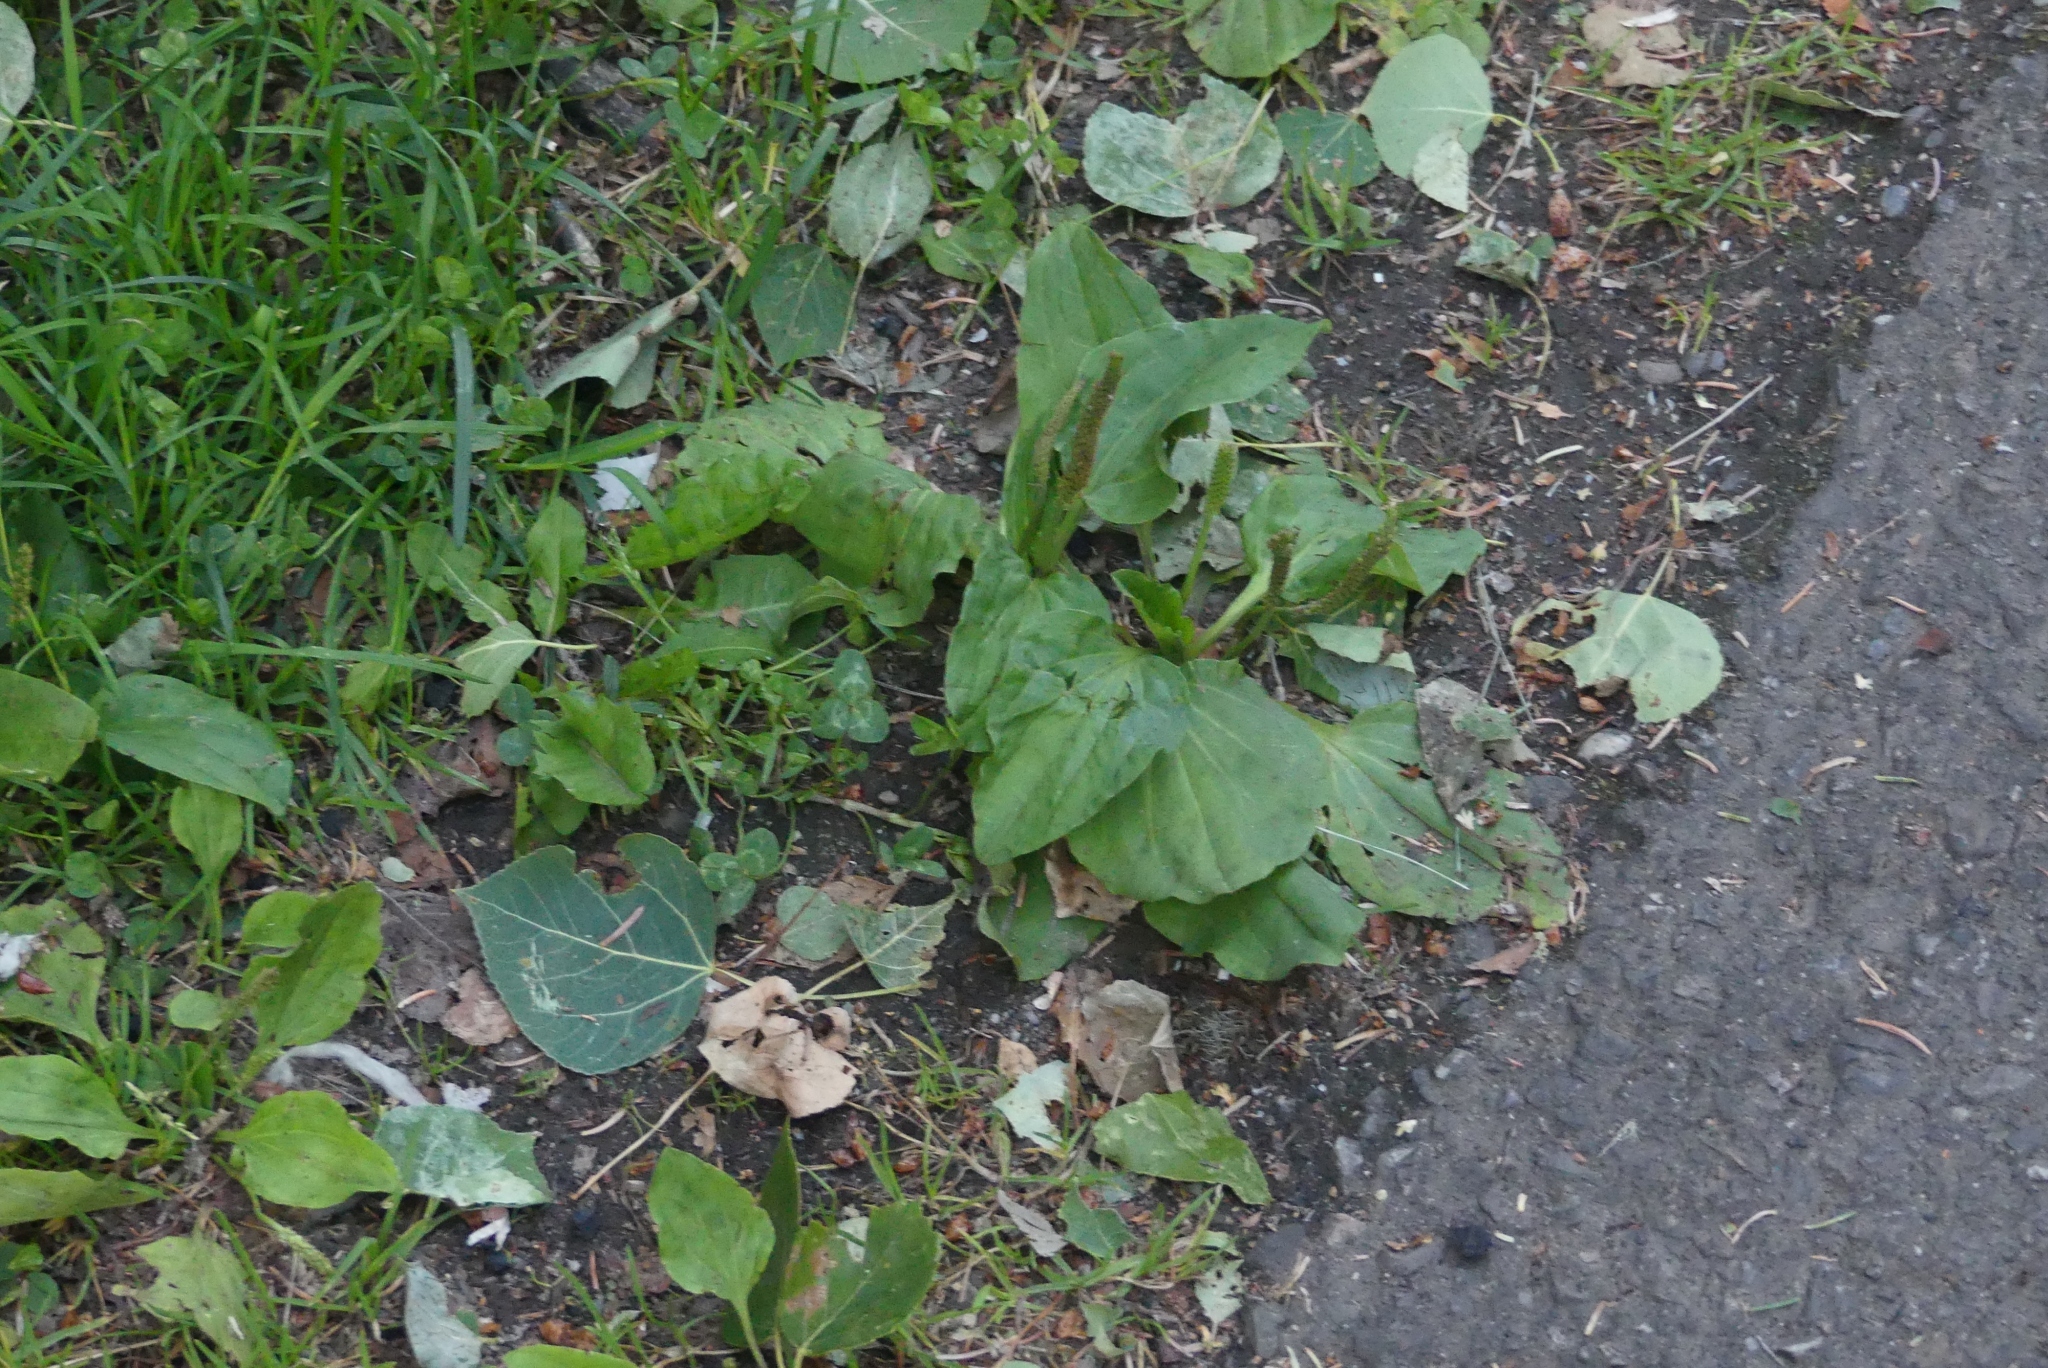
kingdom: Plantae
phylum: Tracheophyta
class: Magnoliopsida
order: Lamiales
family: Plantaginaceae
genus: Plantago
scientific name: Plantago major
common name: Common plantain
